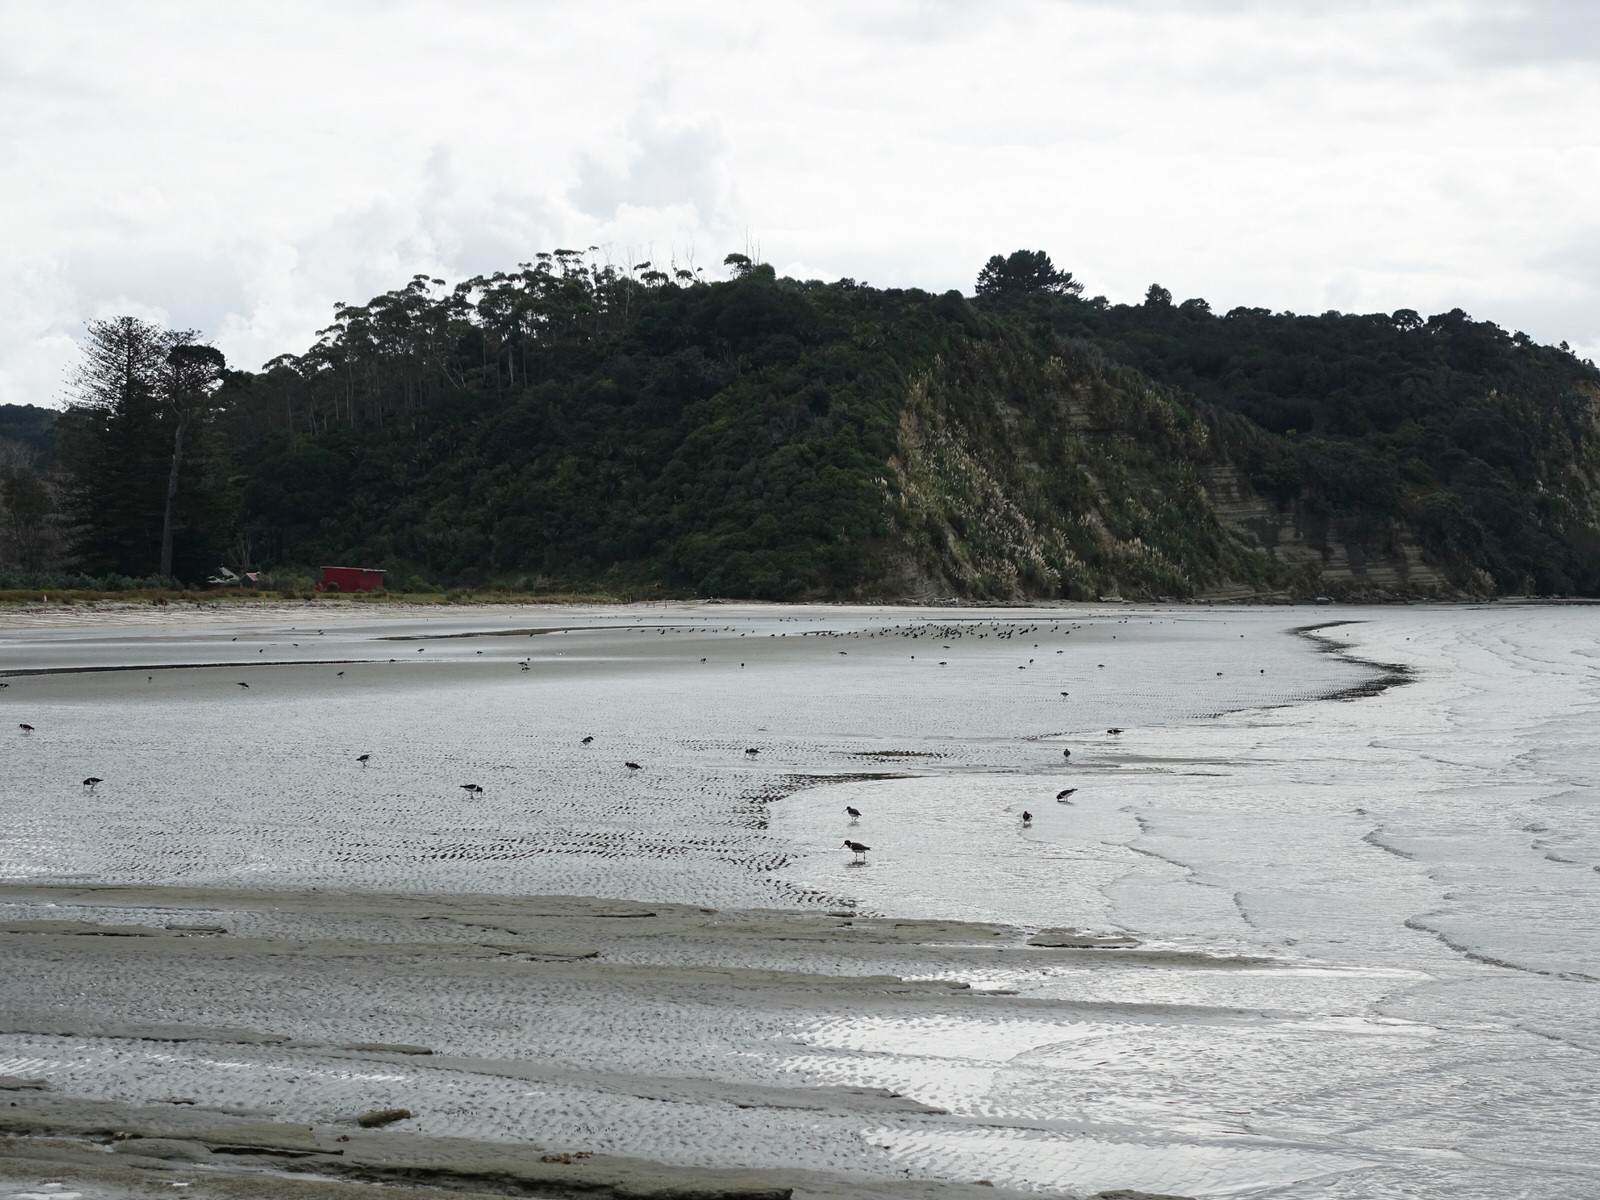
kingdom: Animalia
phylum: Chordata
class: Aves
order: Charadriiformes
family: Haematopodidae
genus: Haematopus
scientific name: Haematopus finschi
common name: South island oystercatcher
